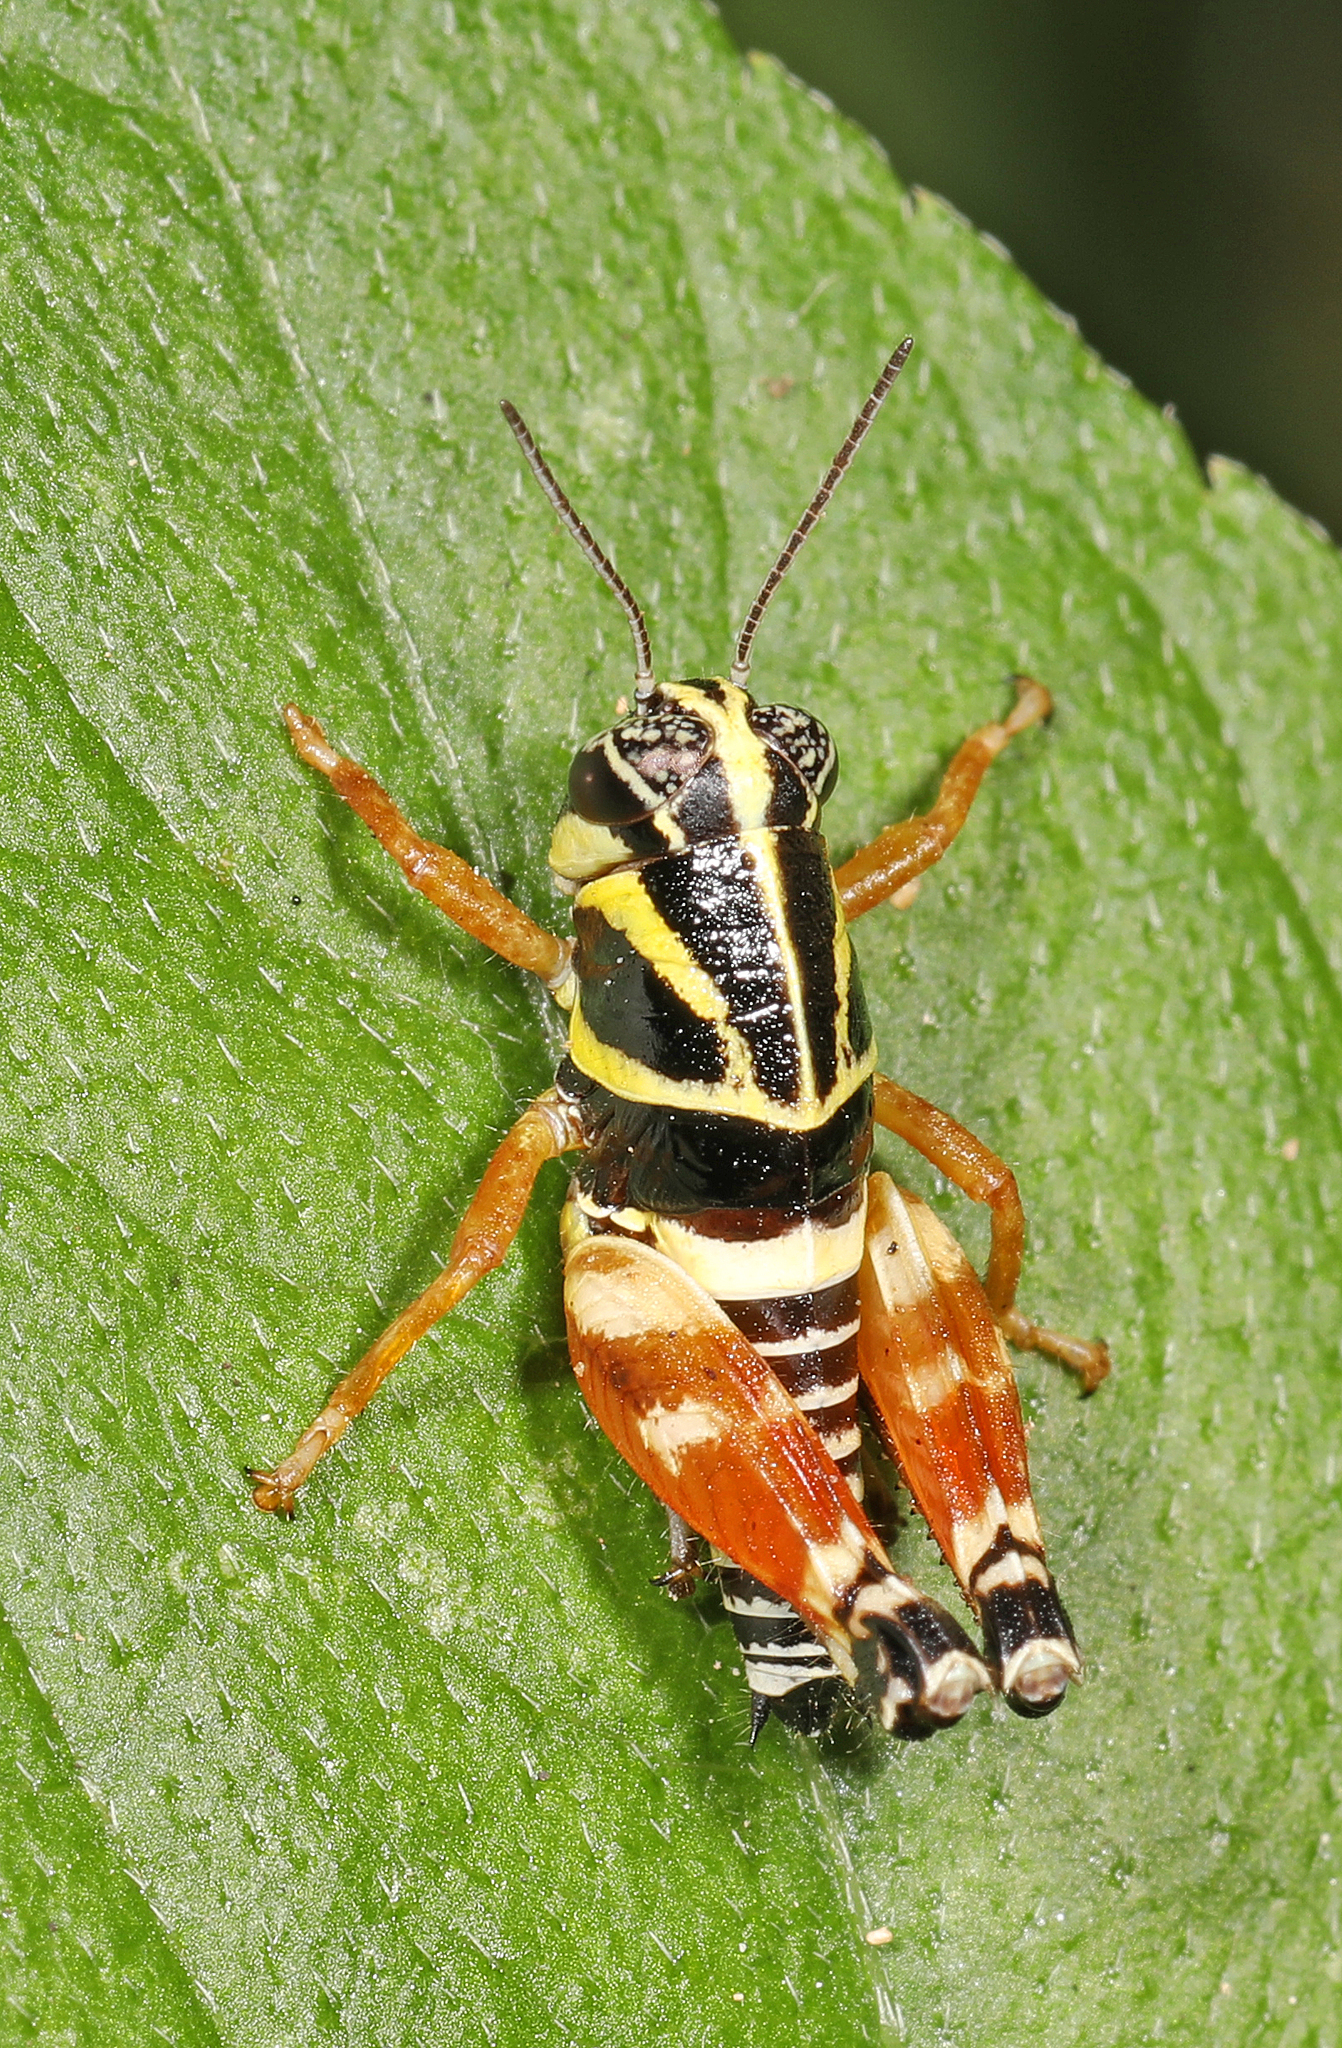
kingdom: Animalia
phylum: Arthropoda
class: Insecta
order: Orthoptera
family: Acrididae
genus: Aidemona
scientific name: Aidemona azteca
